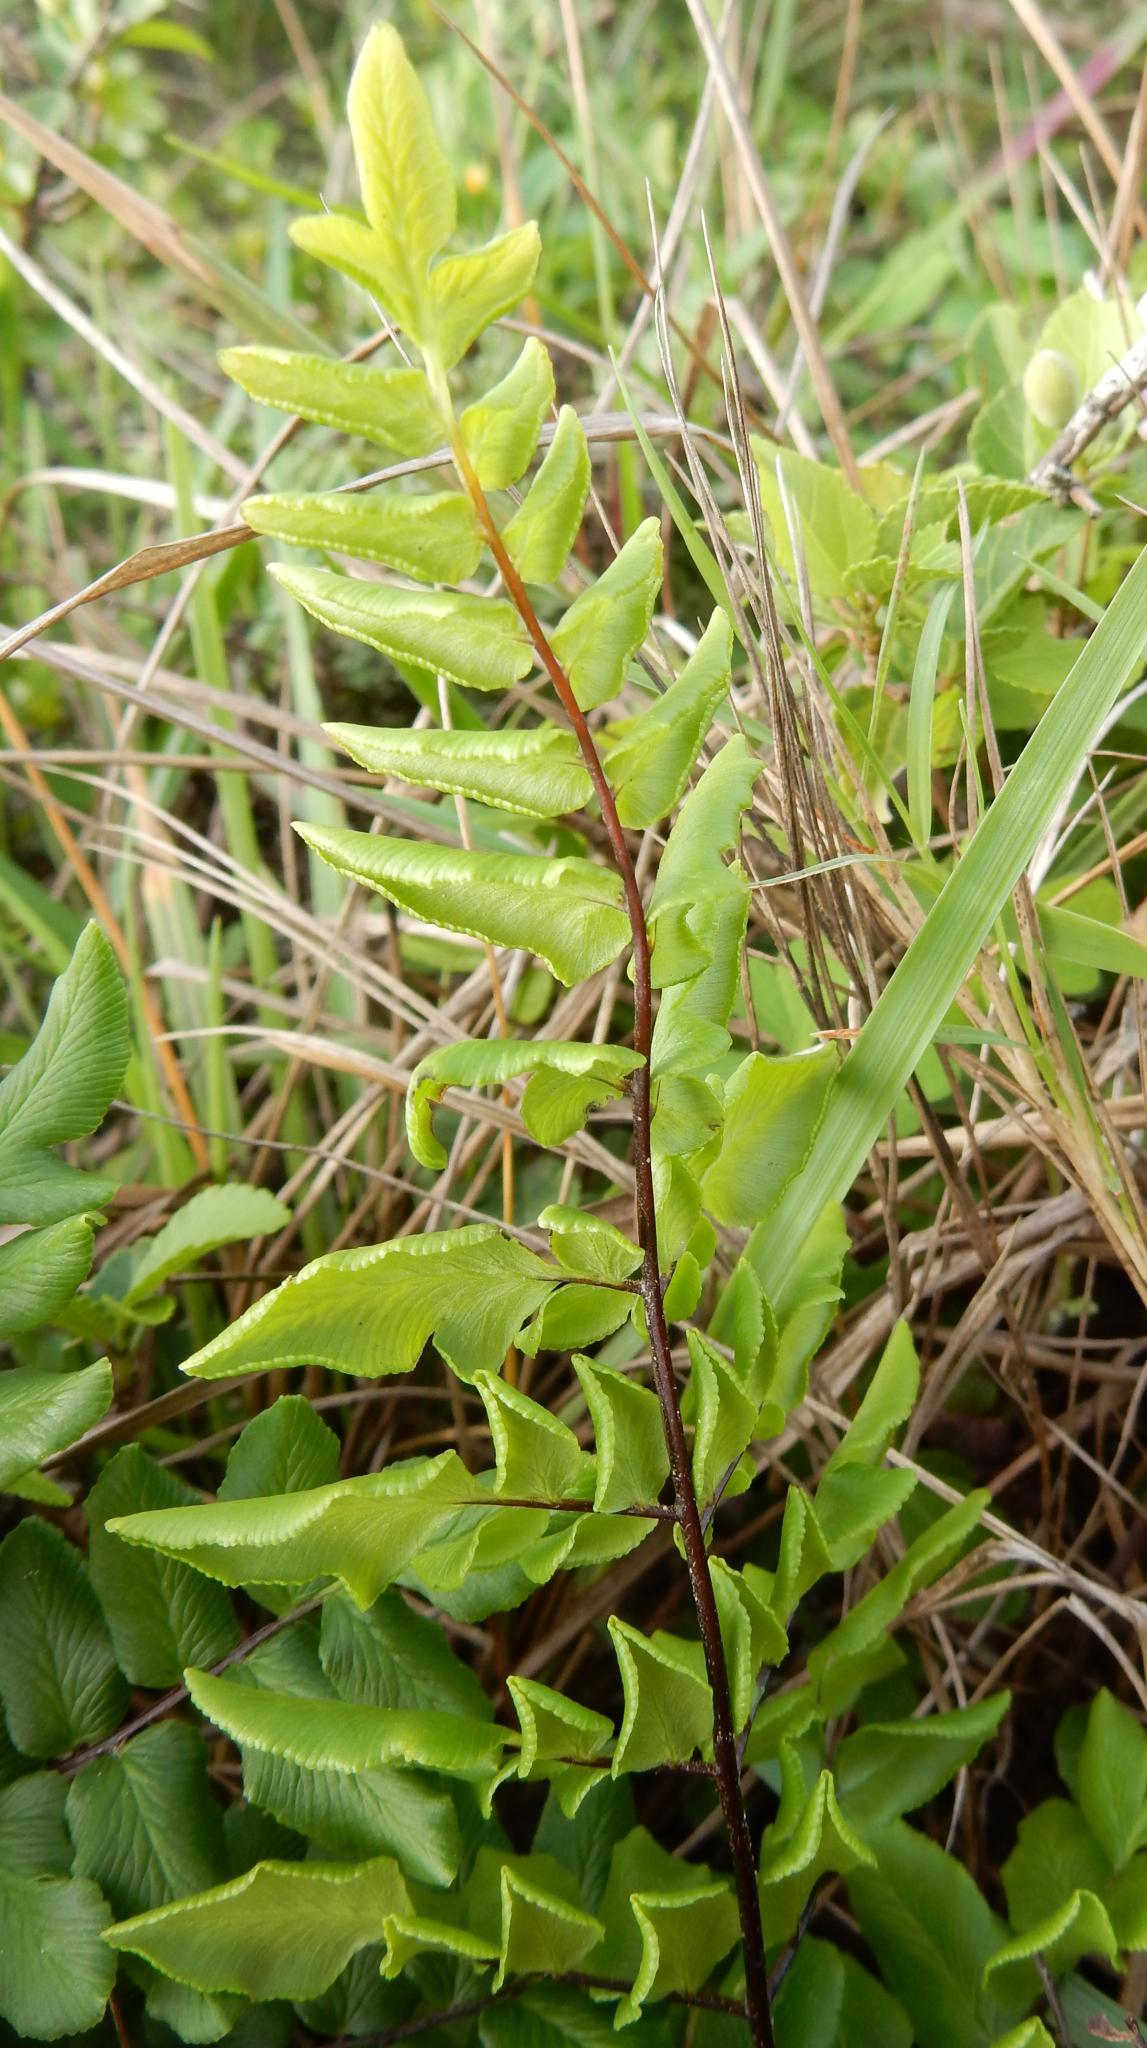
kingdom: Plantae
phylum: Tracheophyta
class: Polypodiopsida
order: Polypodiales
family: Pteridaceae
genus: Cheilanthes
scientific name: Cheilanthes viridis
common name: Green cliffbrake
